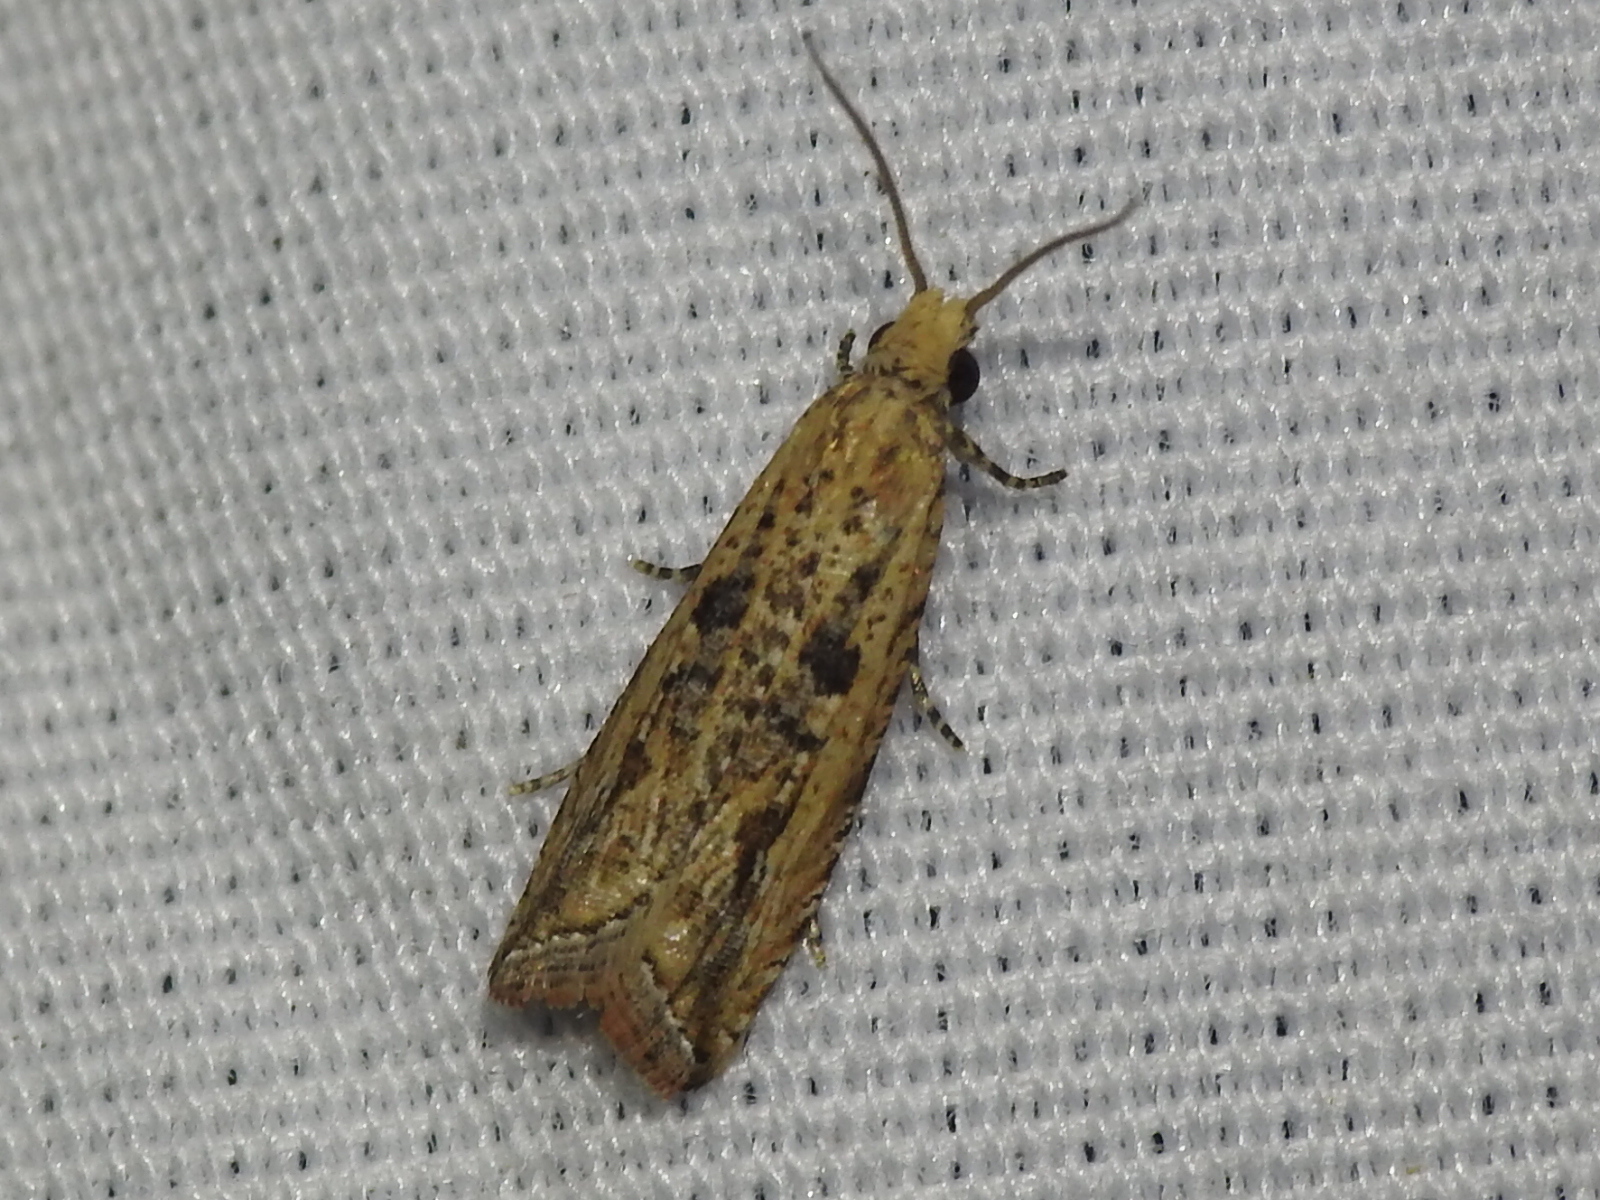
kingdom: Animalia
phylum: Arthropoda
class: Insecta
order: Lepidoptera
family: Tortricidae
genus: Bactra
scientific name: Bactra verutana
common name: Javelin moth
